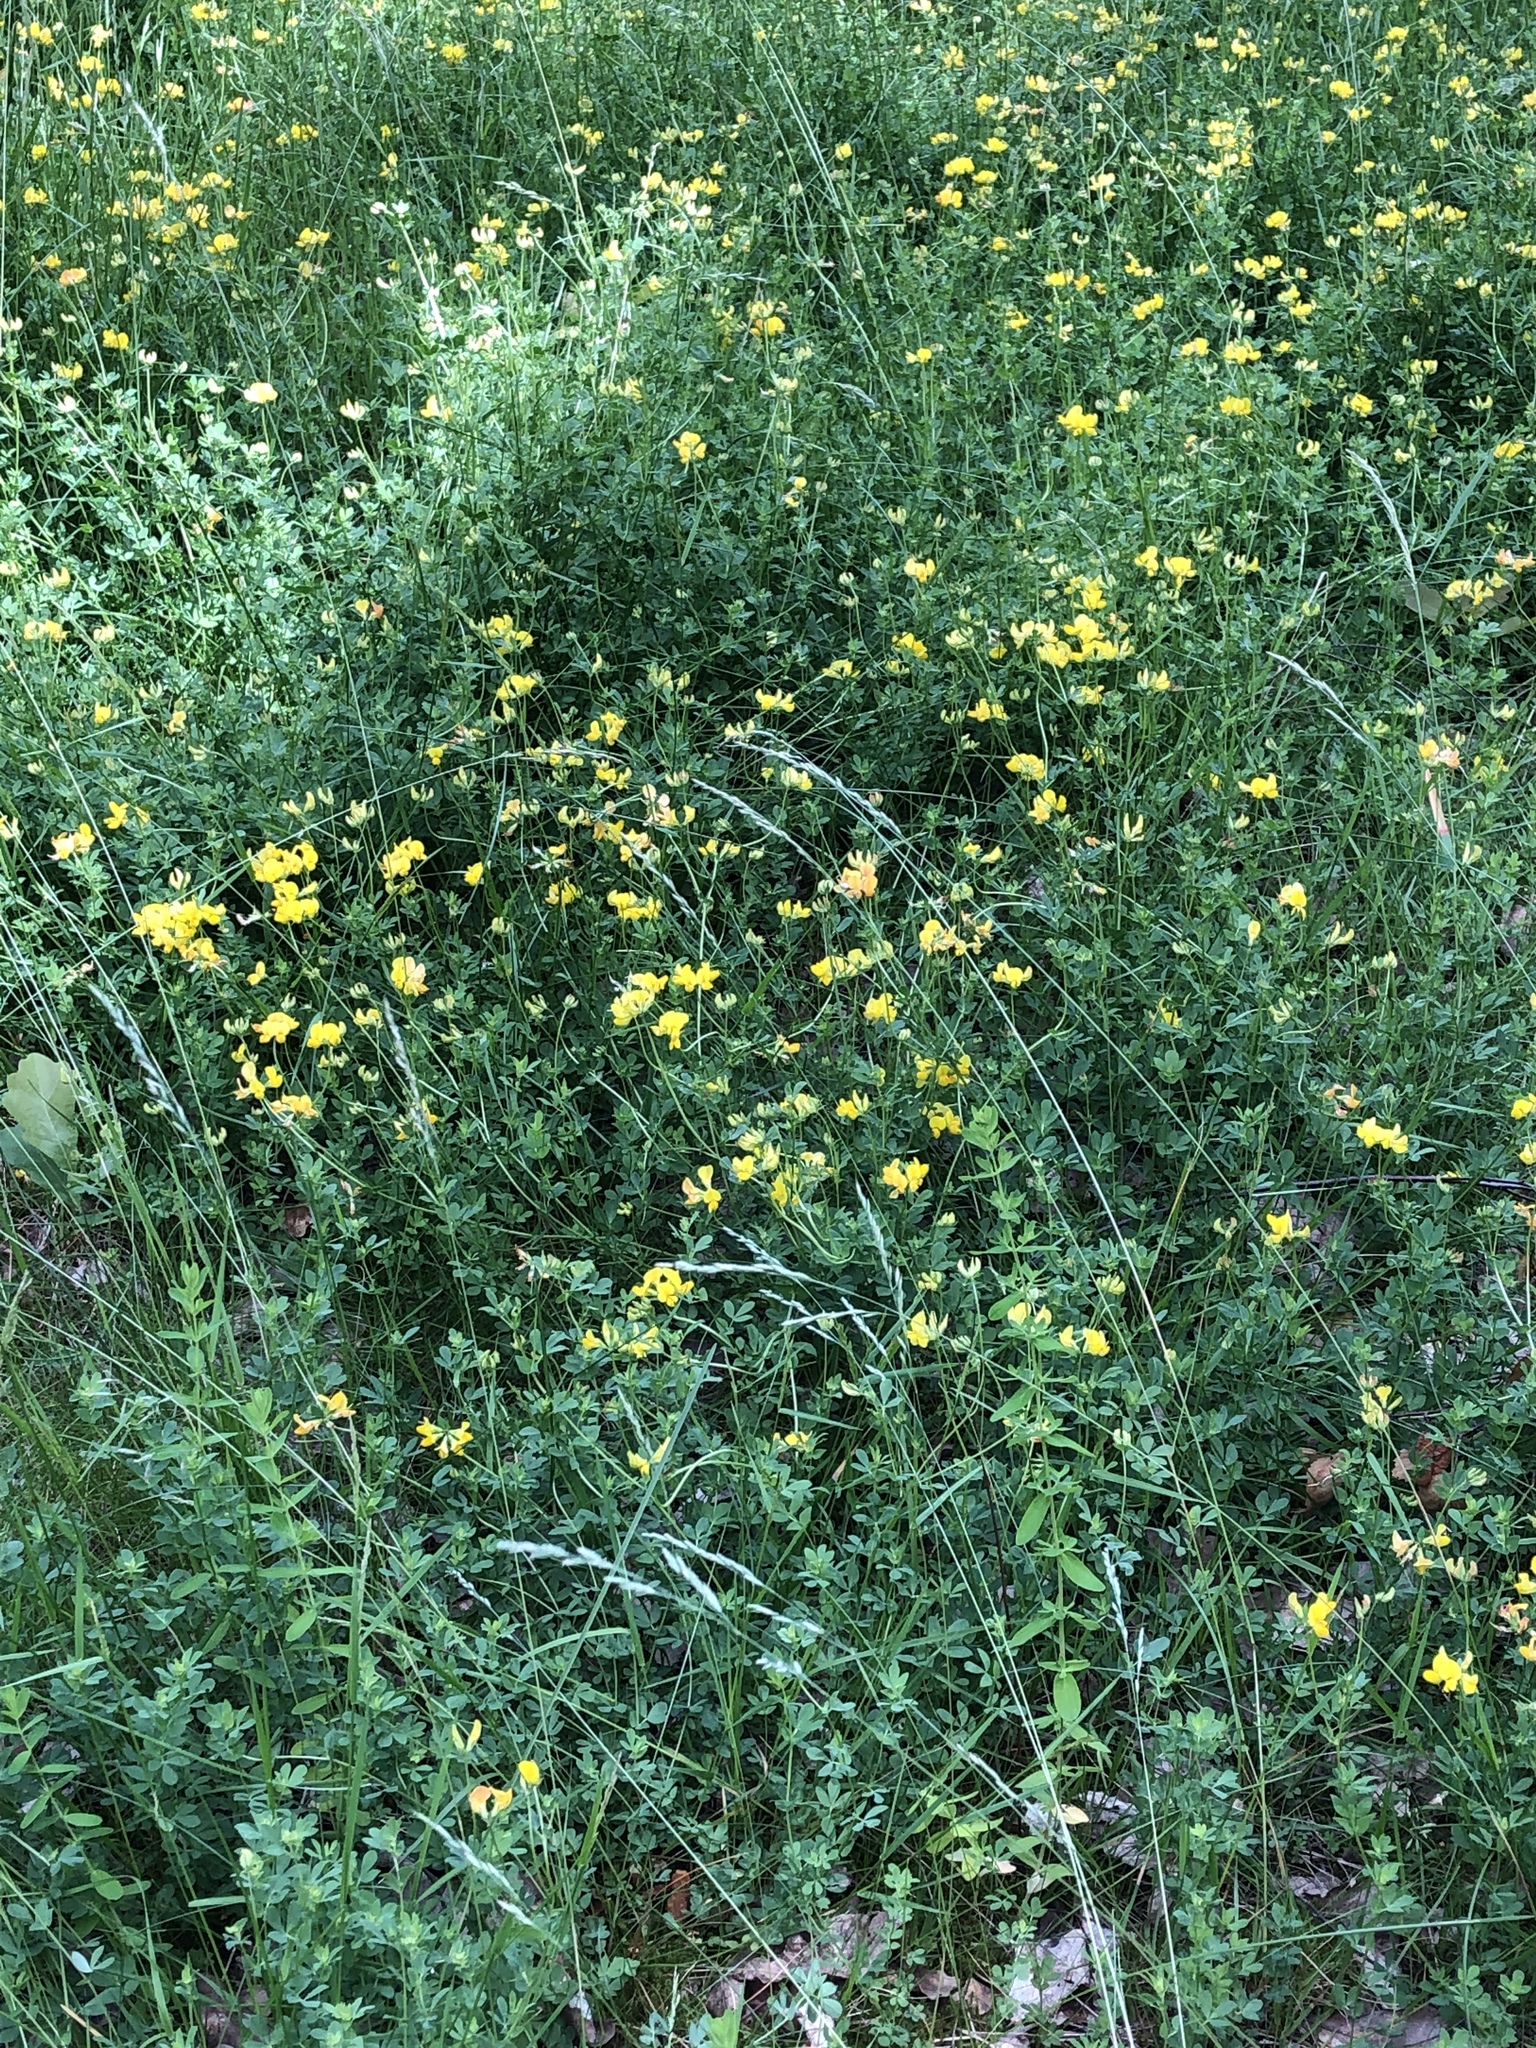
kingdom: Plantae
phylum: Tracheophyta
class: Magnoliopsida
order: Fabales
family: Fabaceae
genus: Lotus
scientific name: Lotus corniculatus
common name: Common bird's-foot-trefoil
